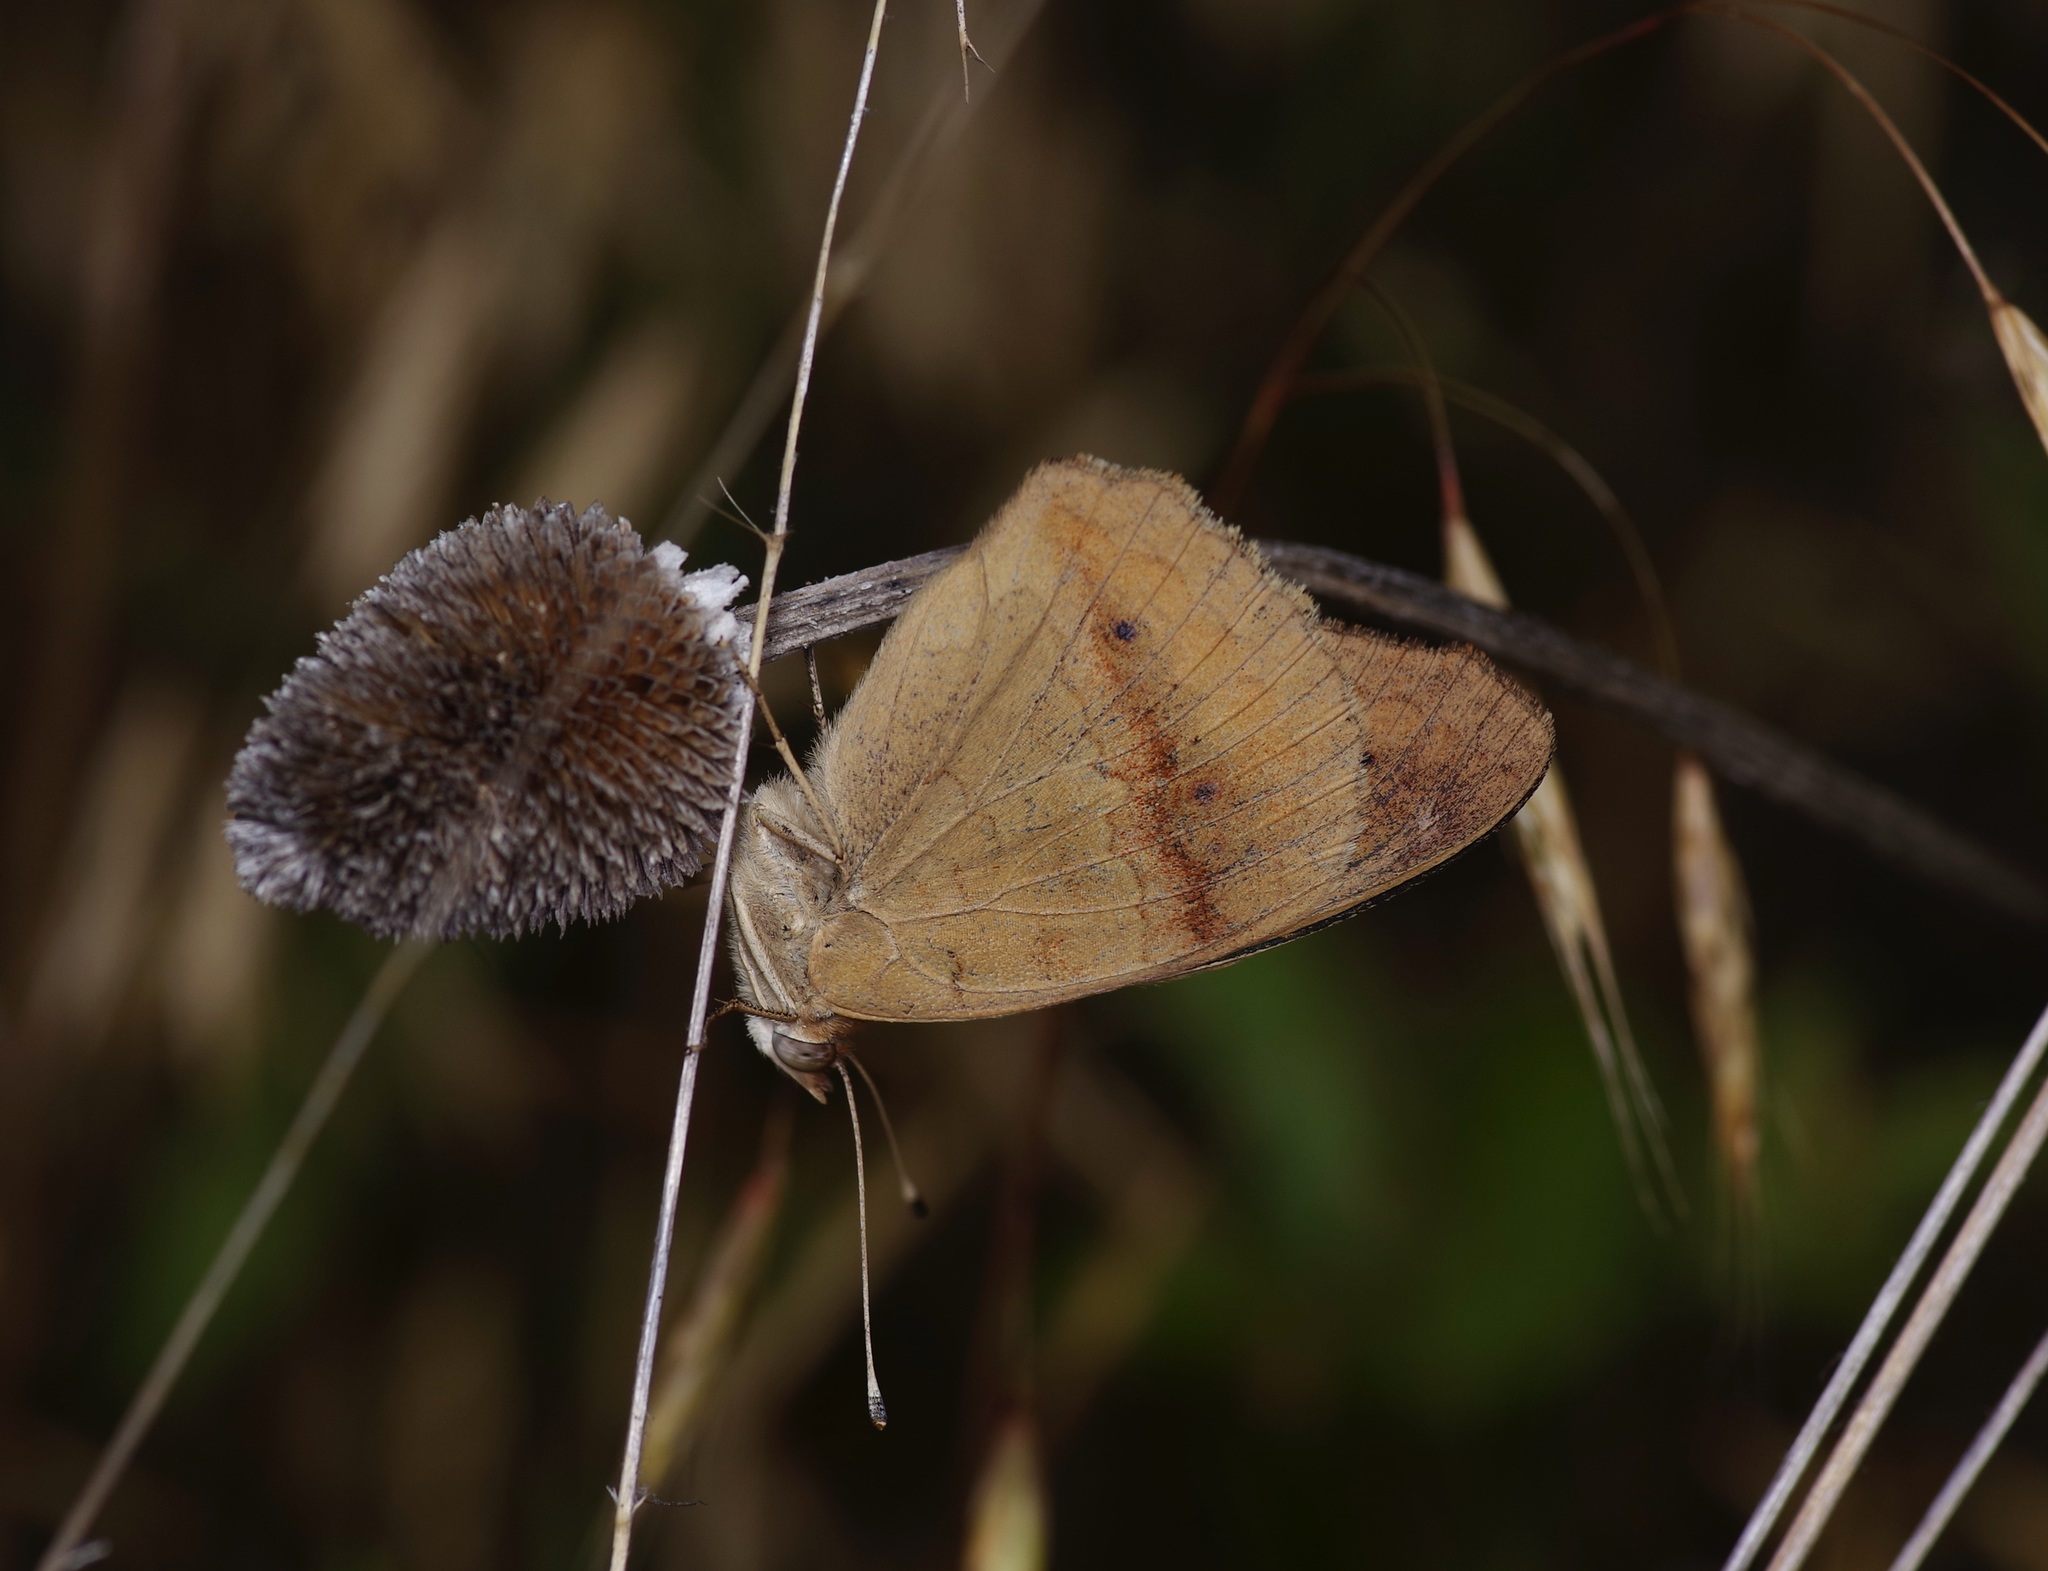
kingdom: Animalia
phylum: Arthropoda
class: Insecta
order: Lepidoptera
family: Nymphalidae
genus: Junonia
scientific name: Junonia coenia
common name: Common buckeye
